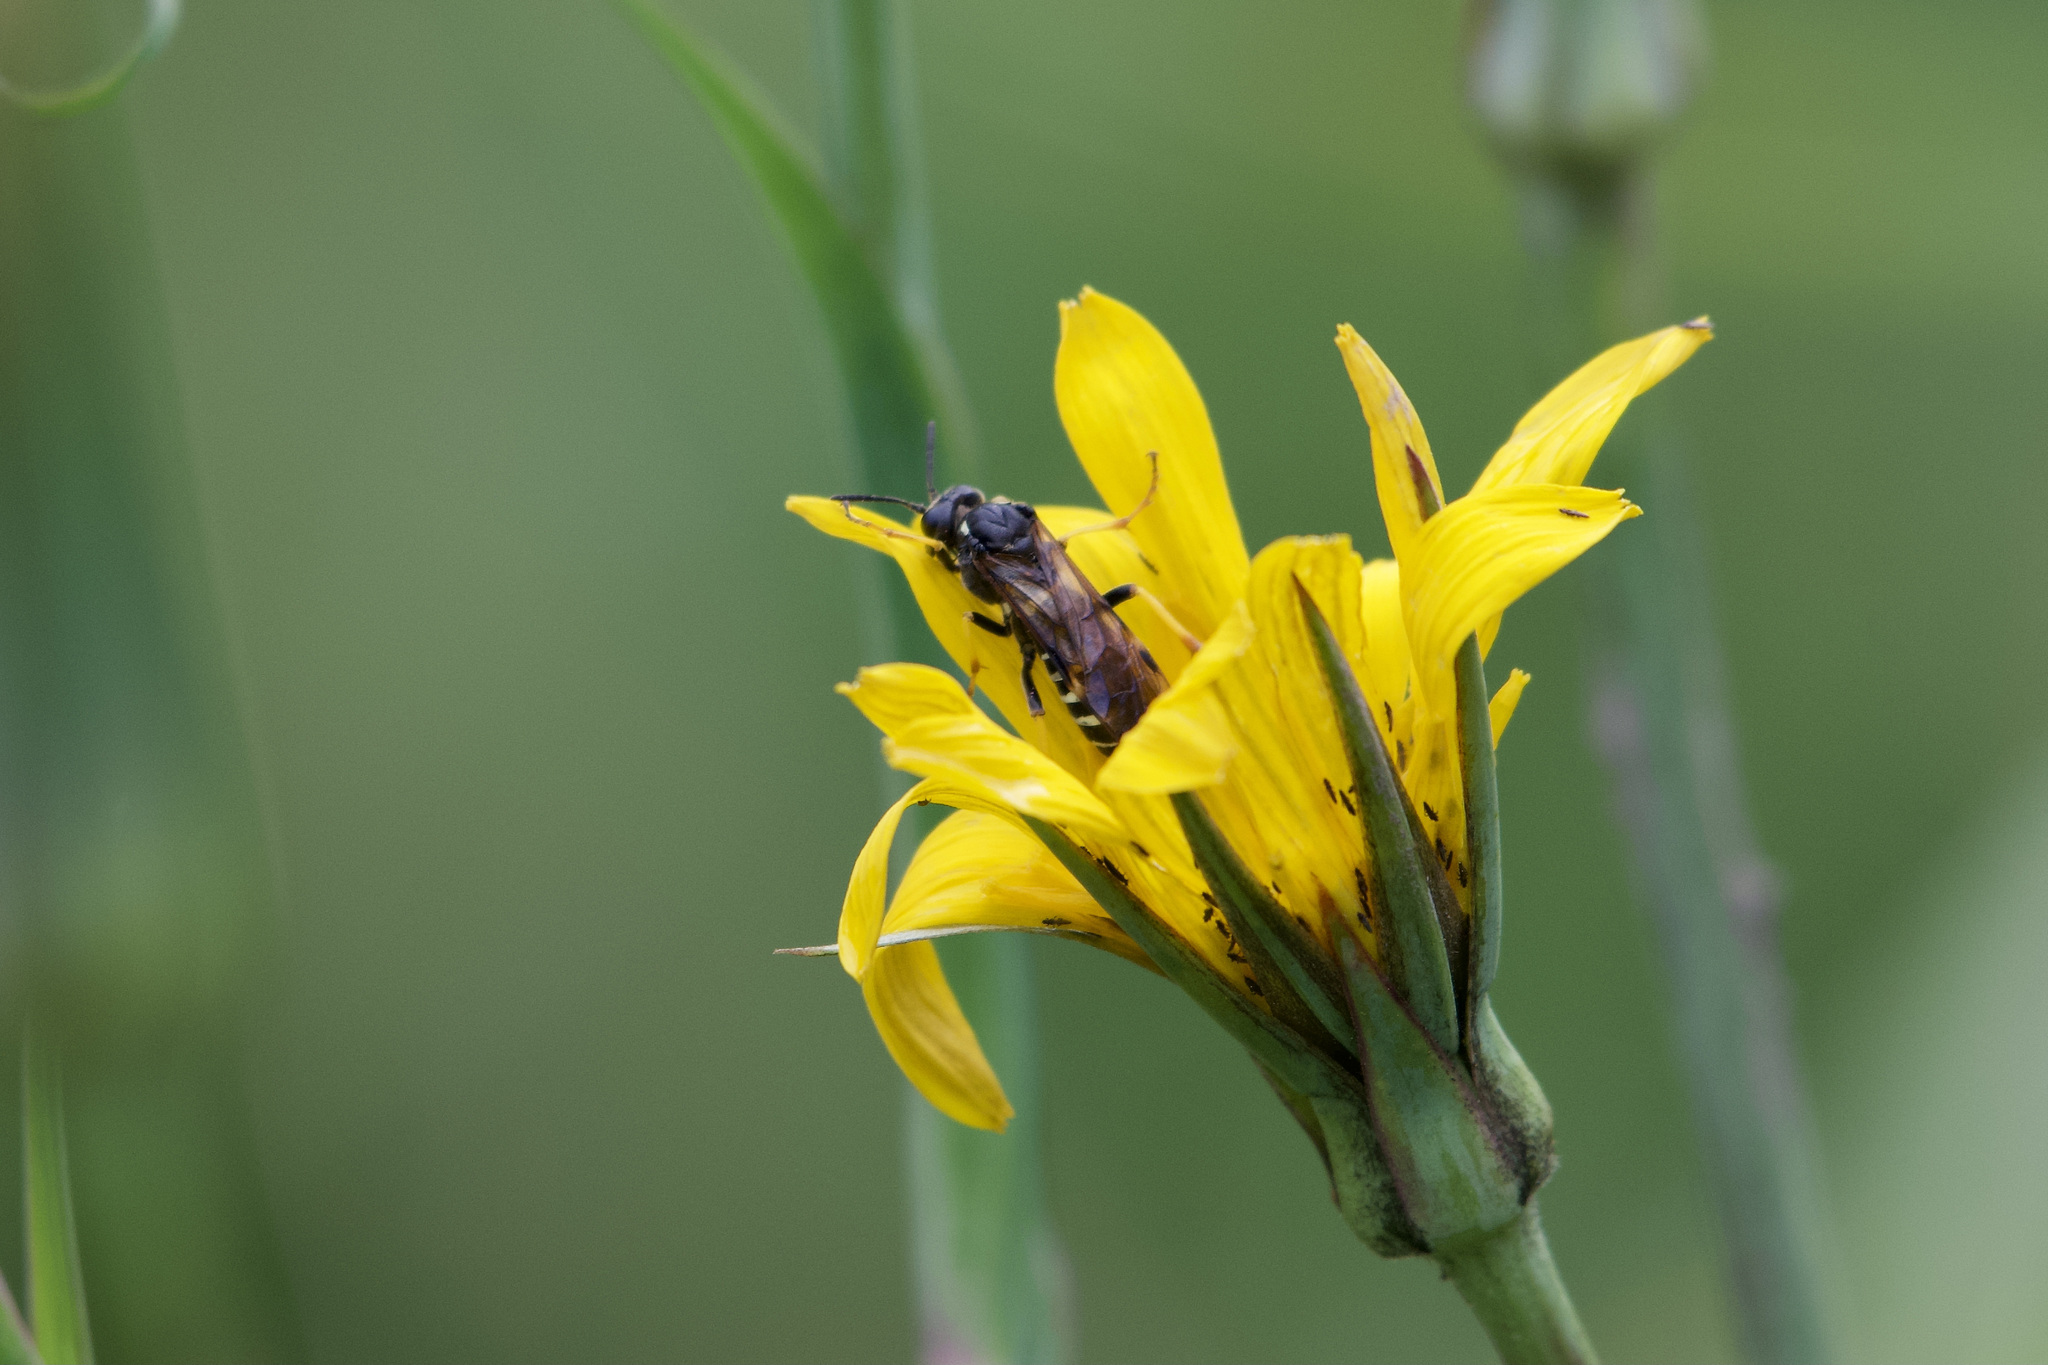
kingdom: Animalia
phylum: Arthropoda
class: Insecta
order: Hymenoptera
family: Tenthredinidae
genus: Tenthredo
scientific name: Tenthredo koehleri
